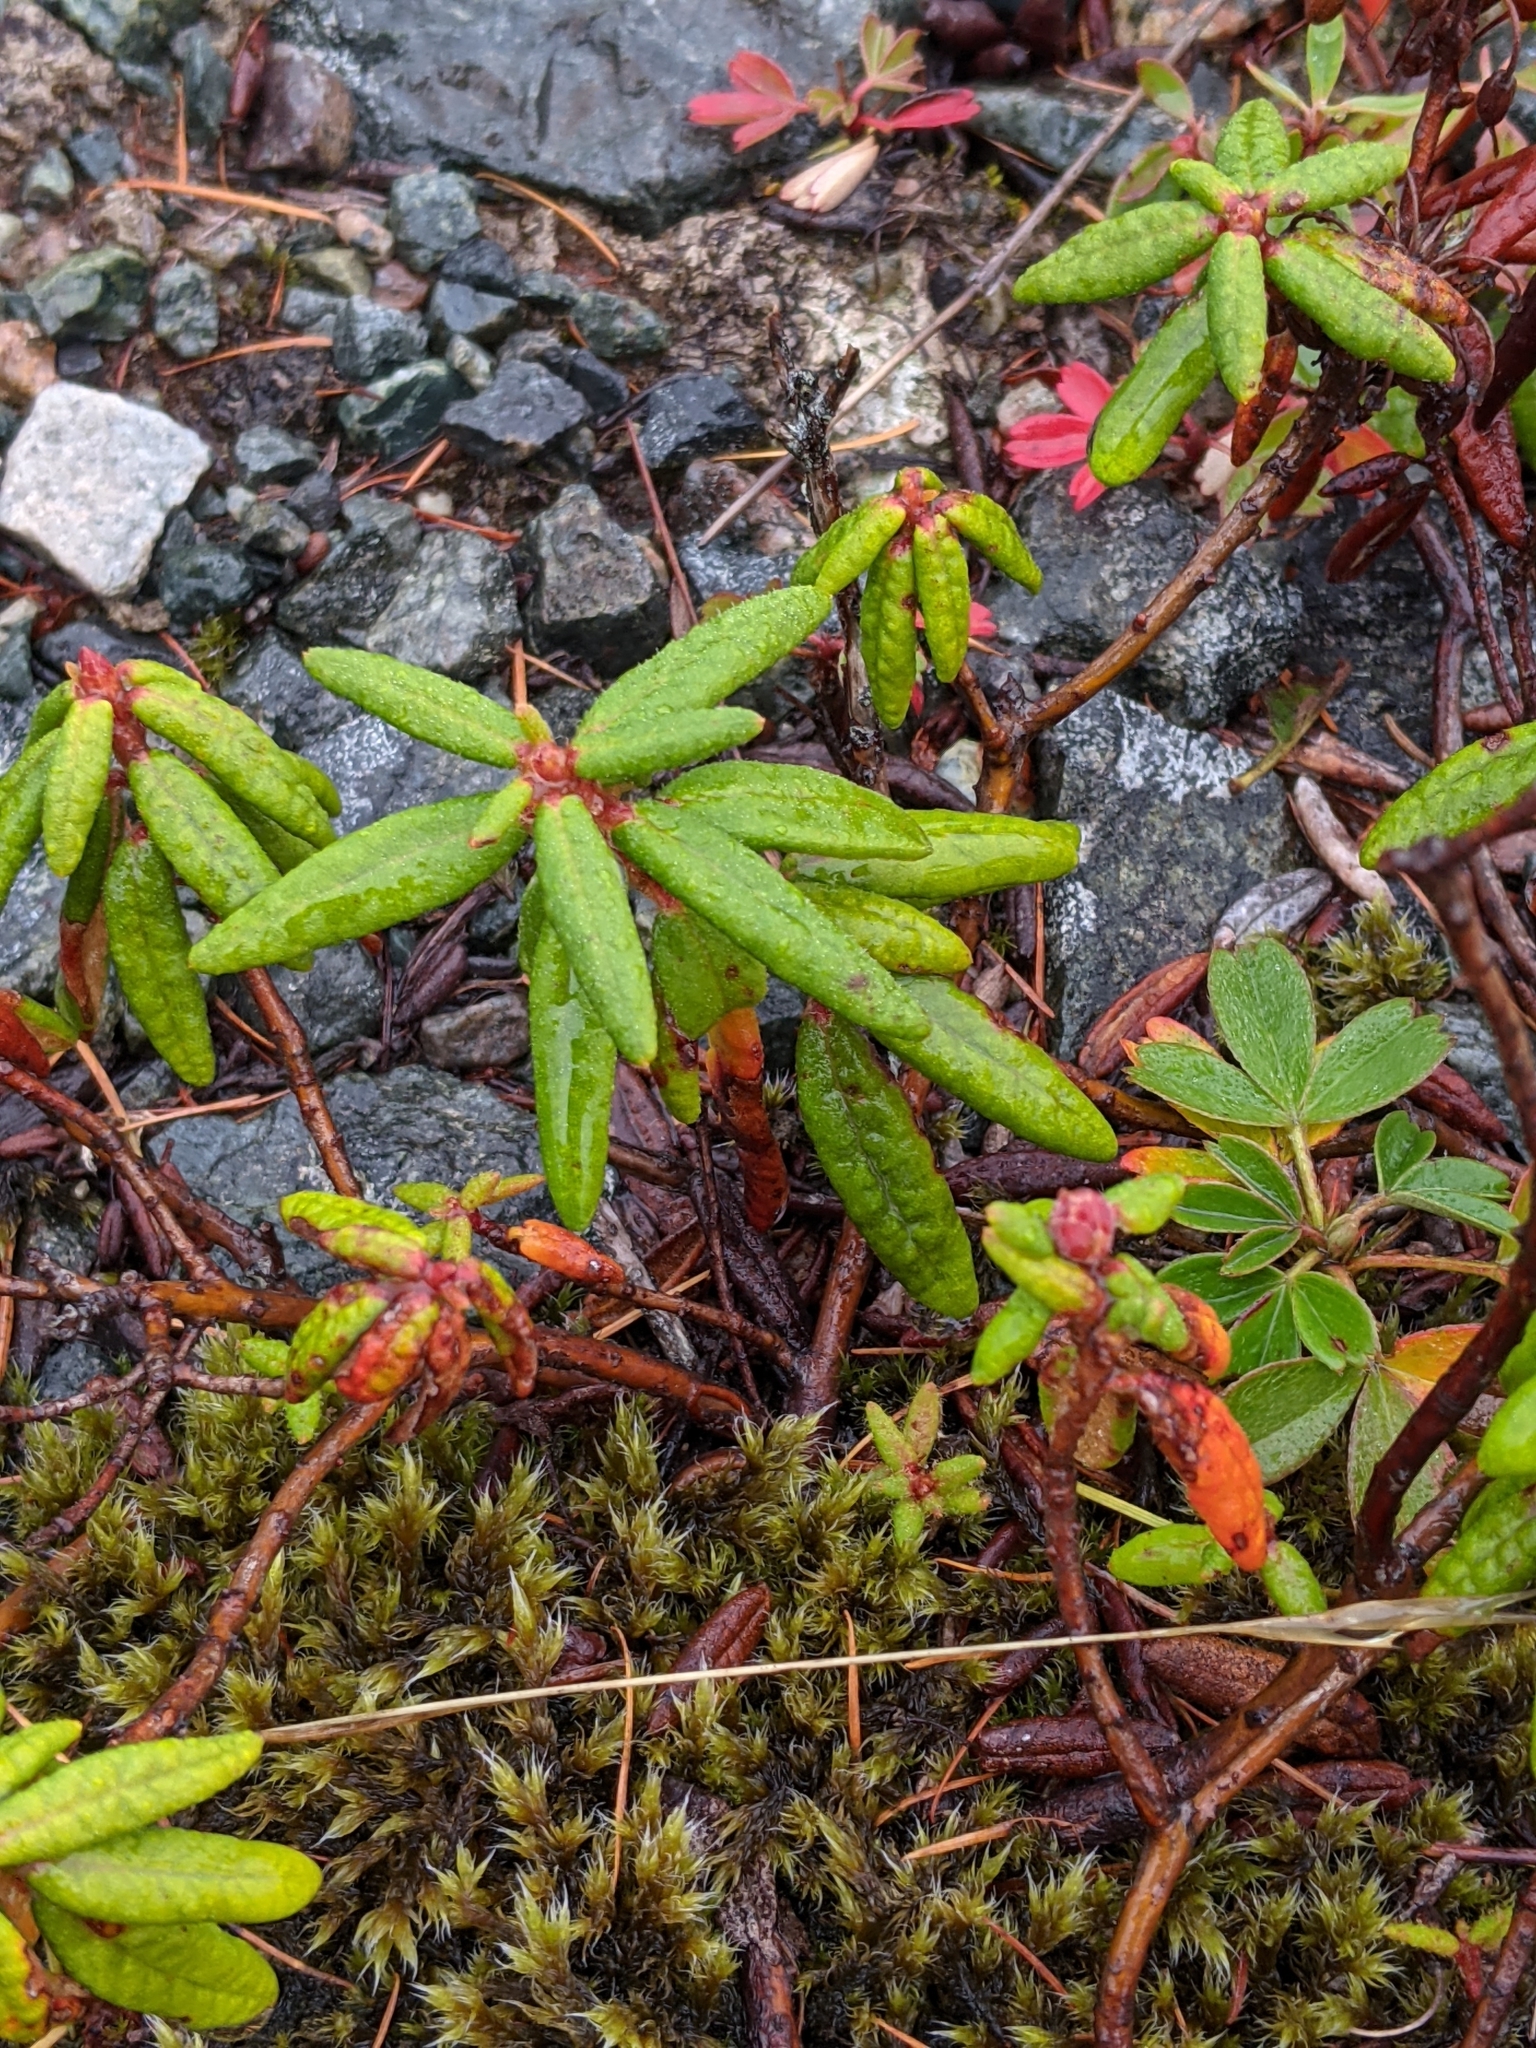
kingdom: Plantae
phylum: Tracheophyta
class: Magnoliopsida
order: Ericales
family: Ericaceae
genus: Rhododendron
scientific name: Rhododendron groenlandicum
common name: Bog labrador tea
